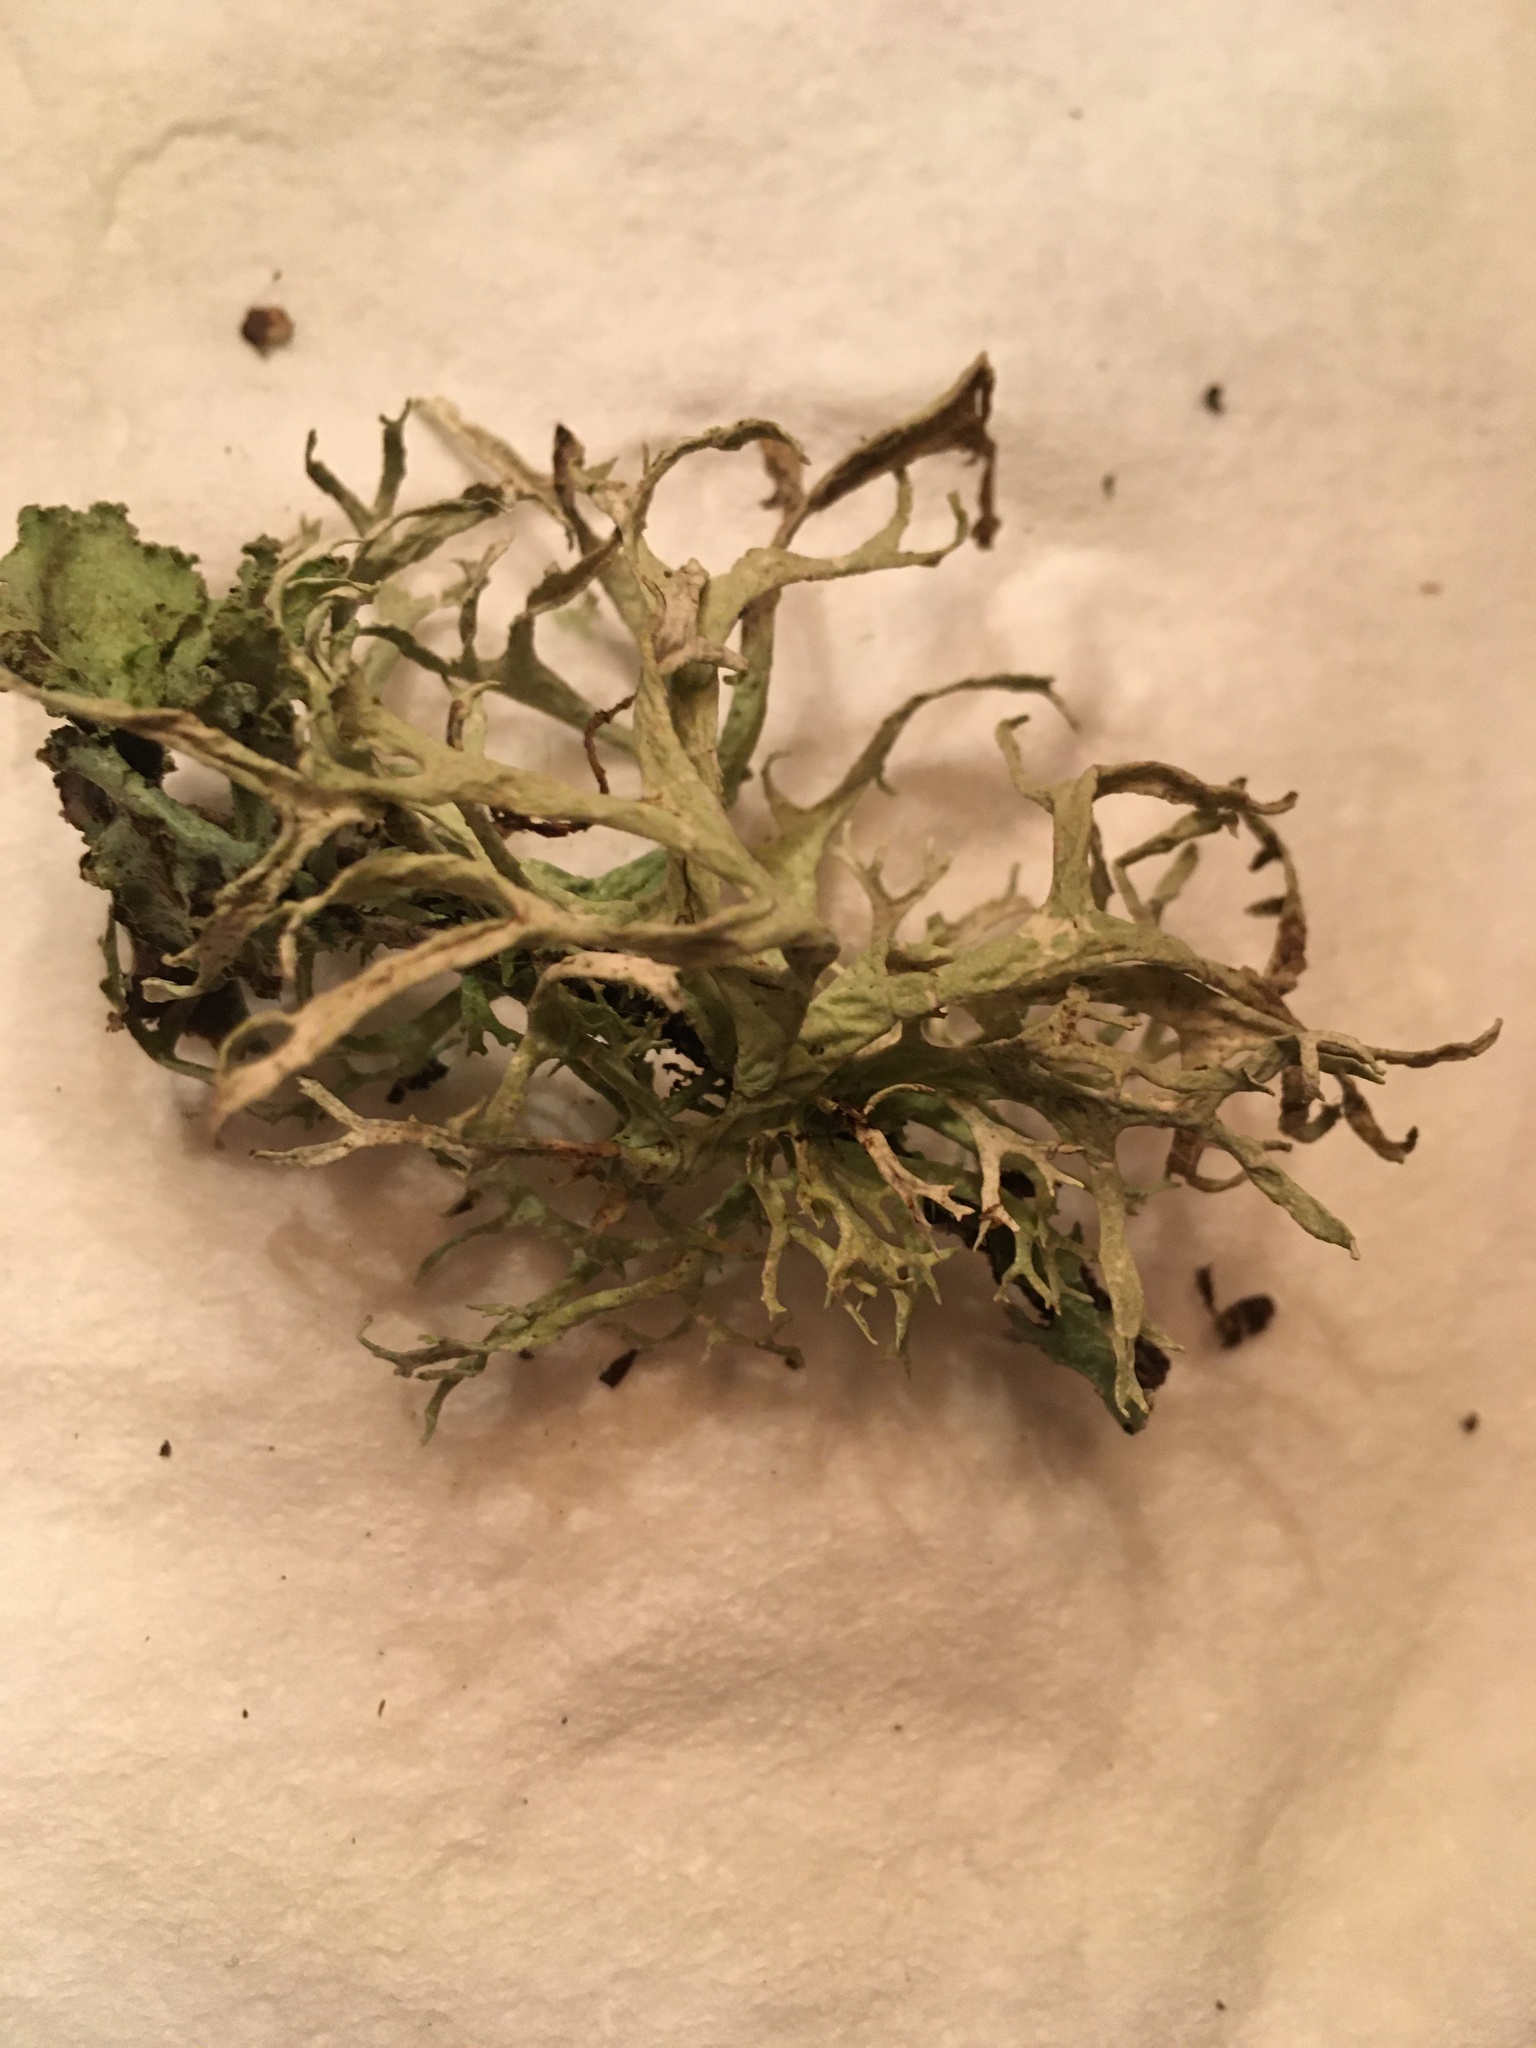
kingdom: Fungi
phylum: Ascomycota
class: Lecanoromycetes
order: Lecanorales
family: Parmeliaceae
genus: Evernia
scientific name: Evernia prunastri
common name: Oak moss
